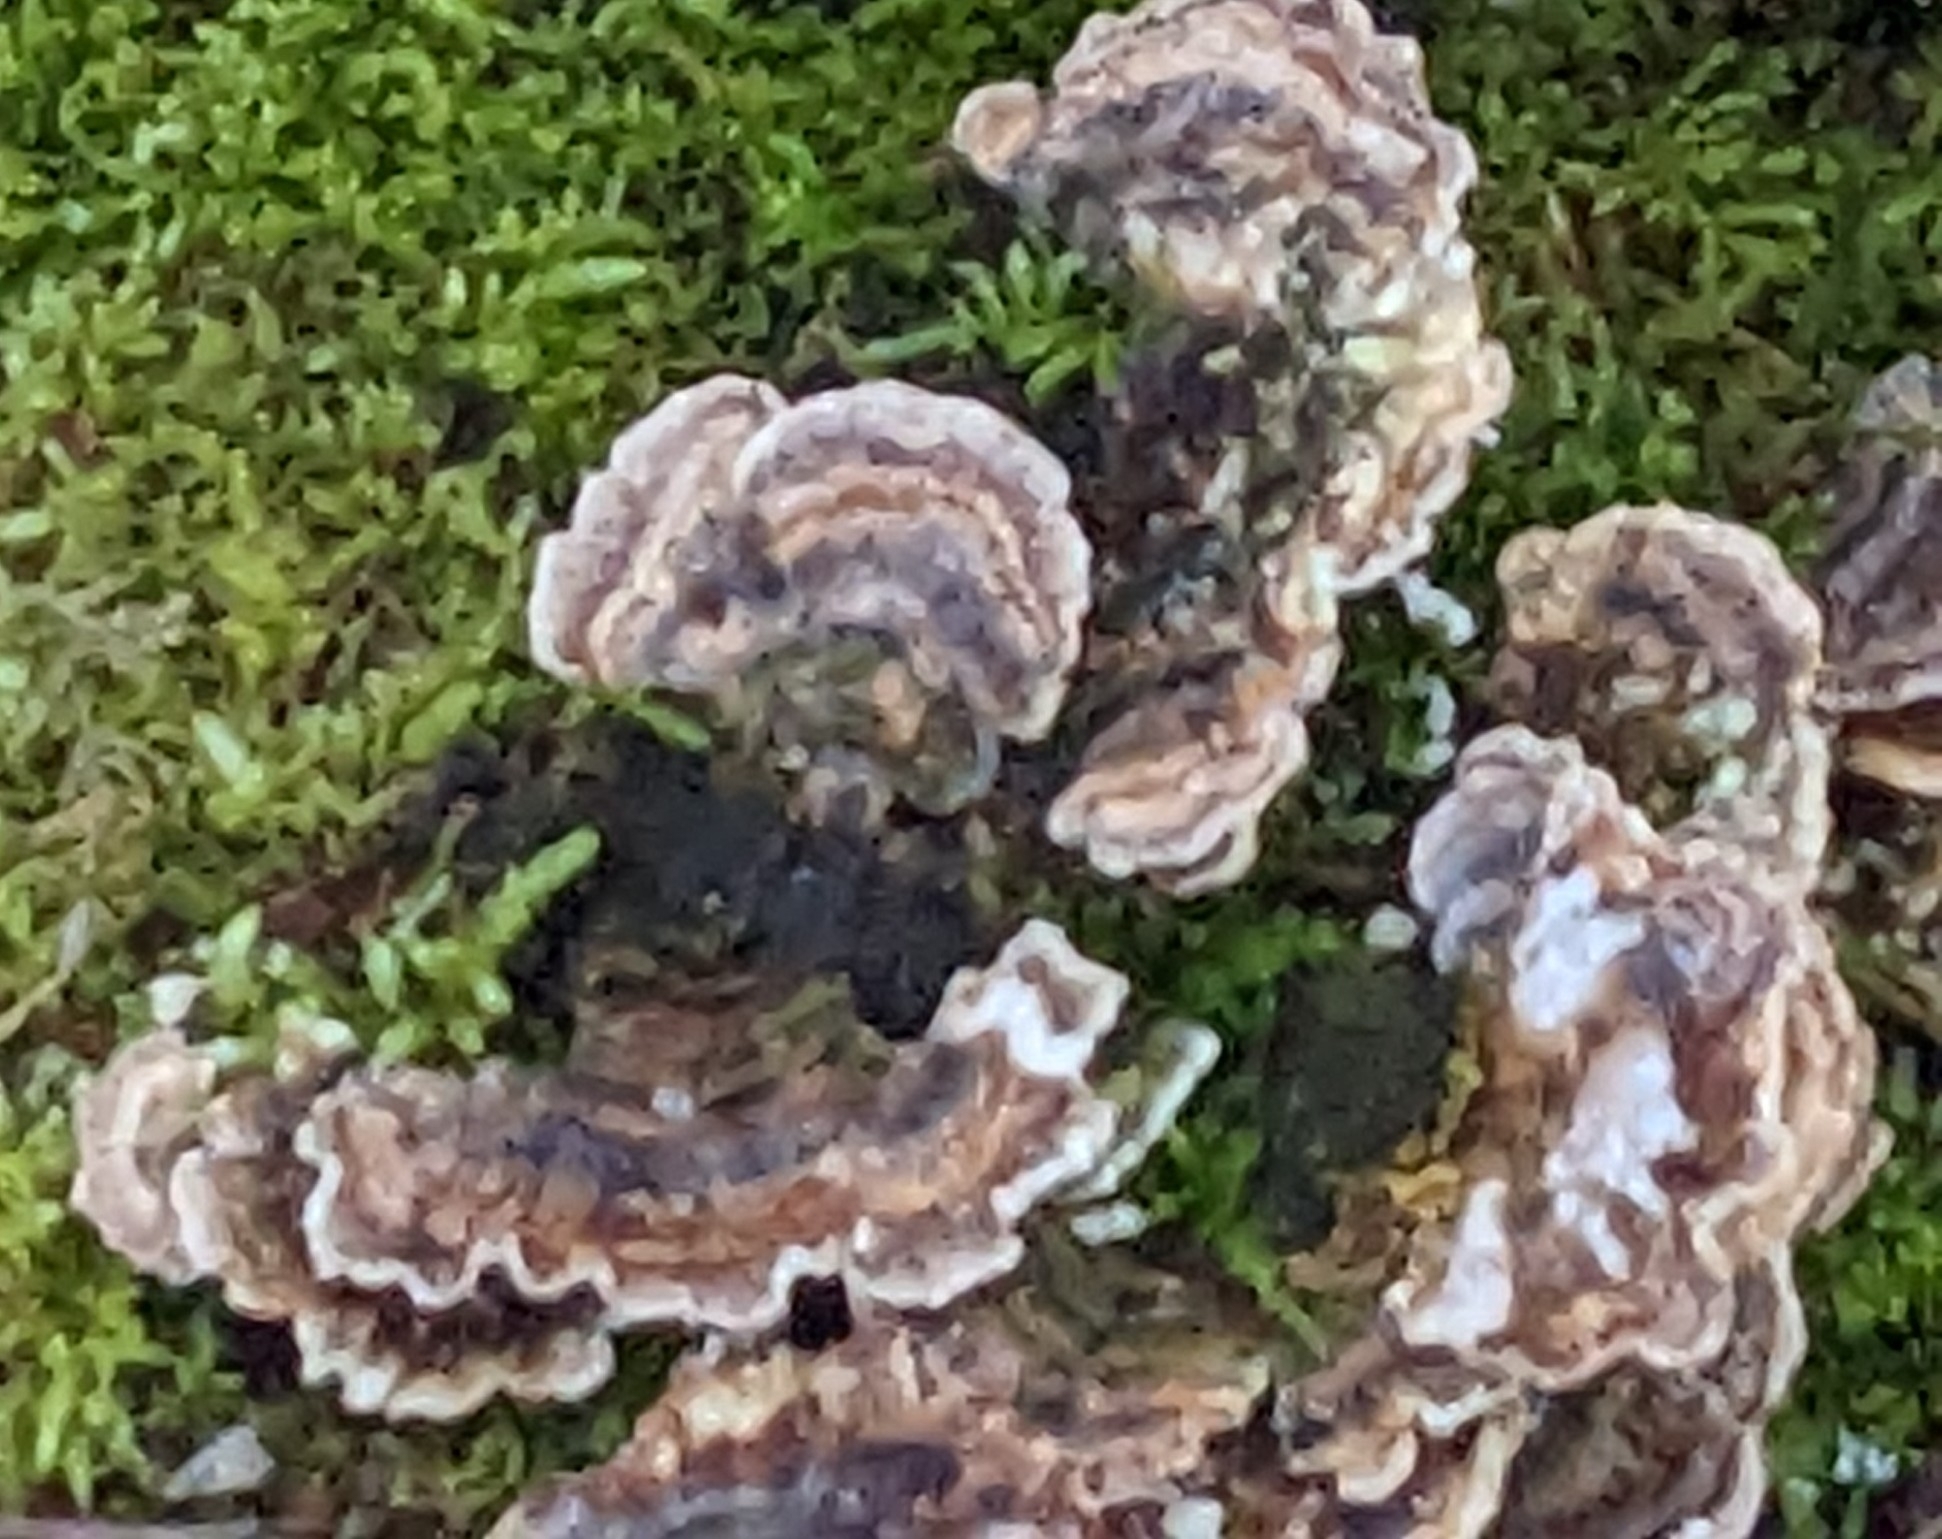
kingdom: Fungi
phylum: Basidiomycota
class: Agaricomycetes
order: Polyporales
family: Polyporaceae
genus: Trametes
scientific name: Trametes versicolor
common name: Turkeytail
